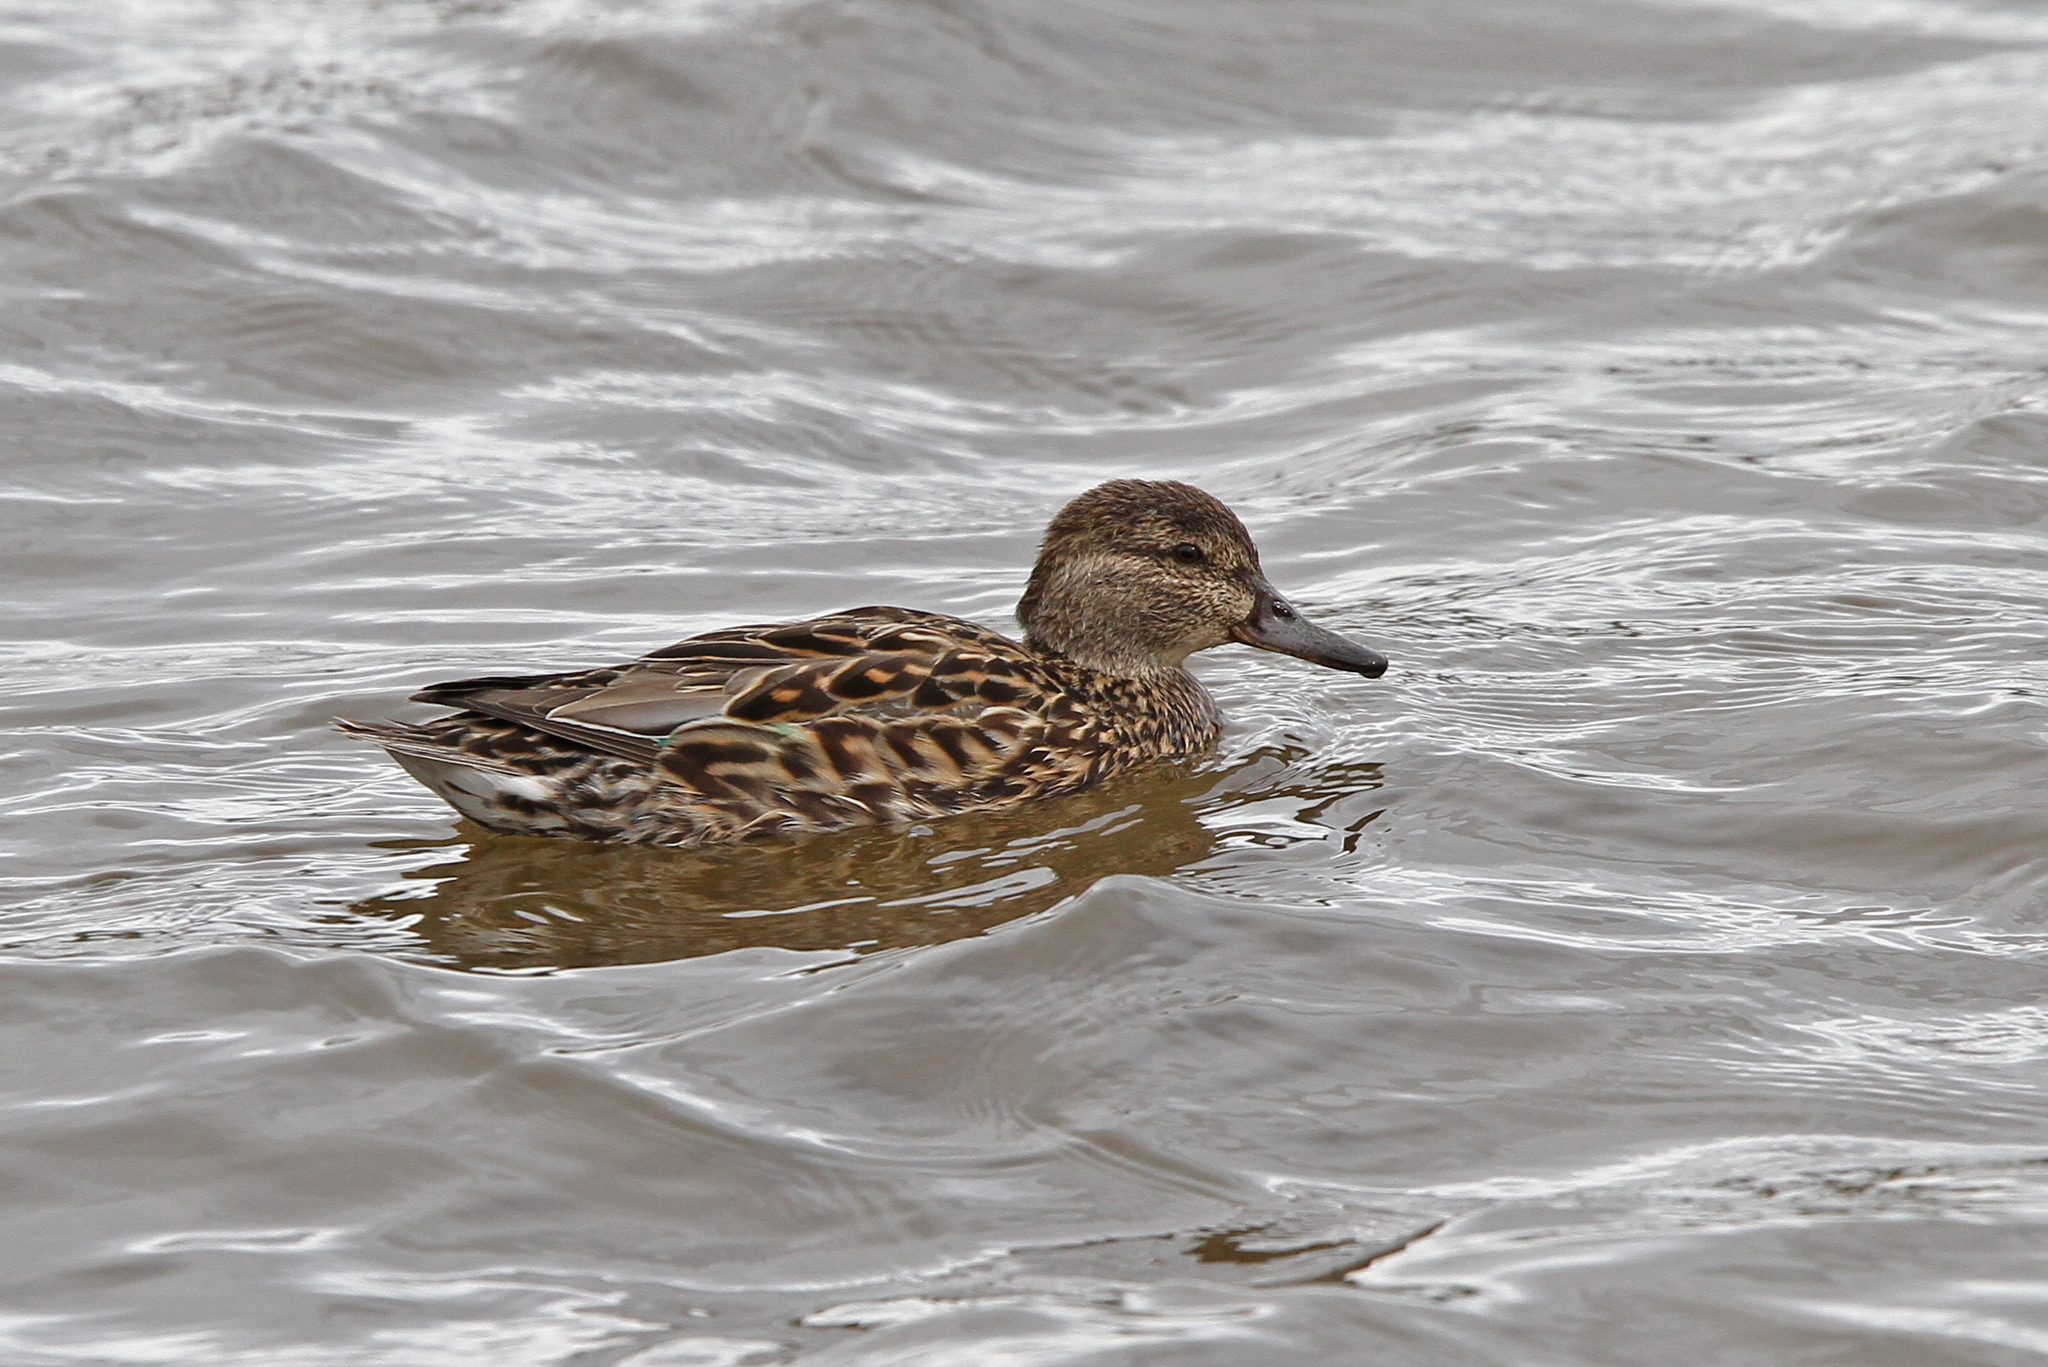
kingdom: Animalia
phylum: Chordata
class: Aves
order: Anseriformes
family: Anatidae
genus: Anas
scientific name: Anas carolinensis
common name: Green-winged teal
